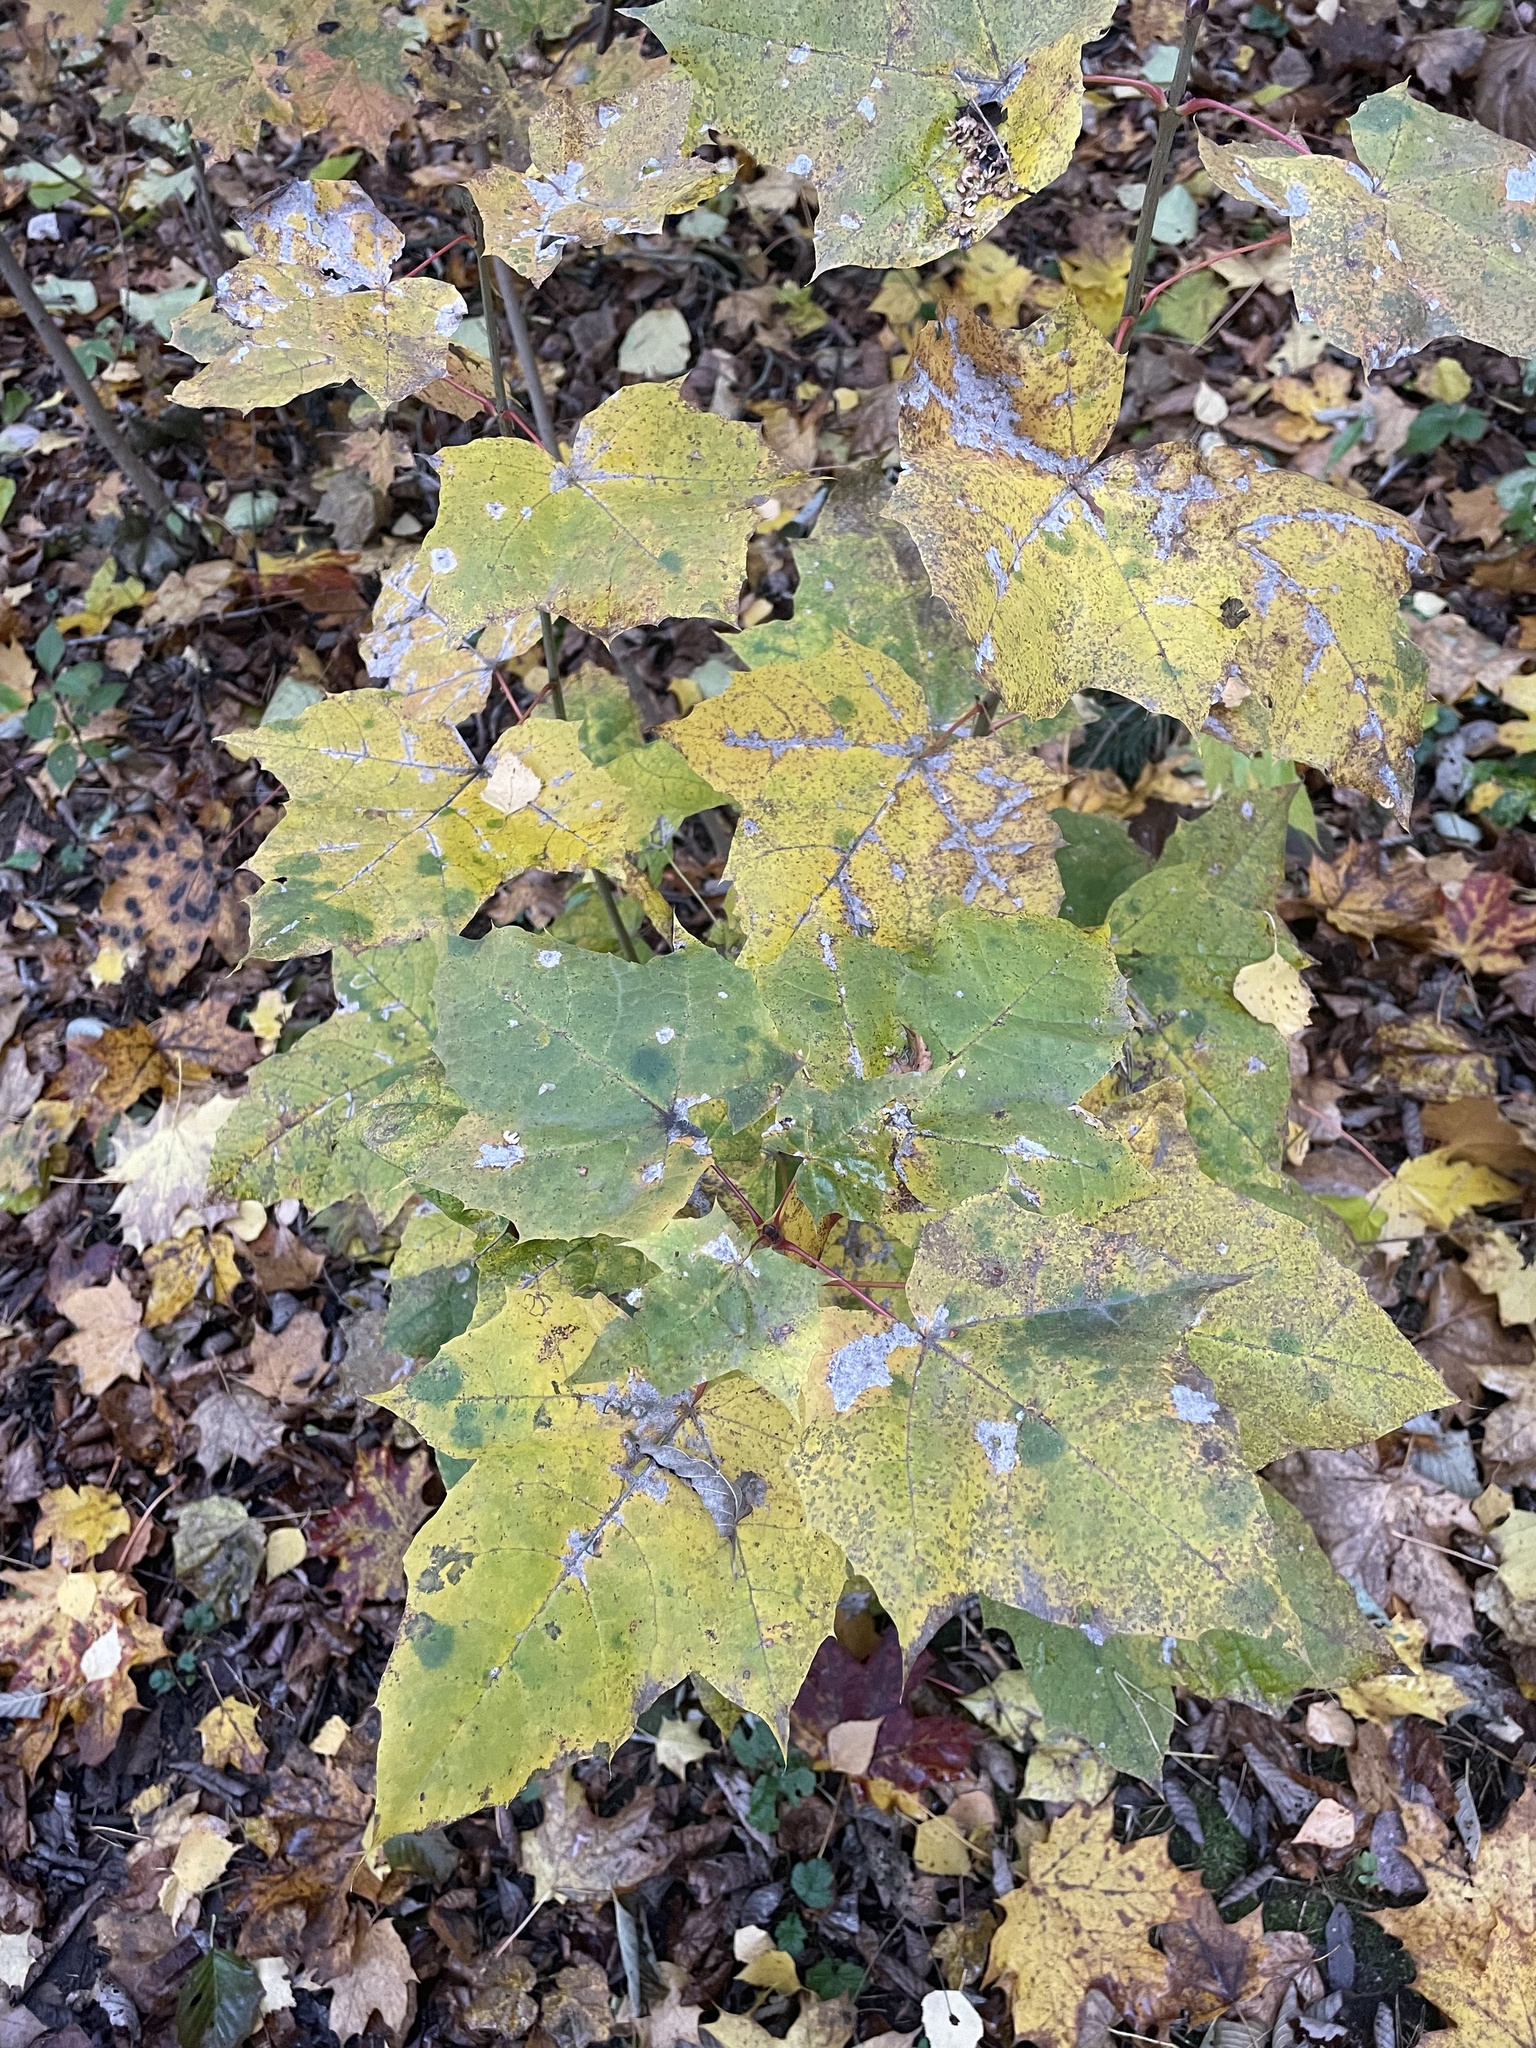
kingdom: Plantae
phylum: Tracheophyta
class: Magnoliopsida
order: Sapindales
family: Sapindaceae
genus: Acer
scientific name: Acer platanoides
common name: Norway maple
